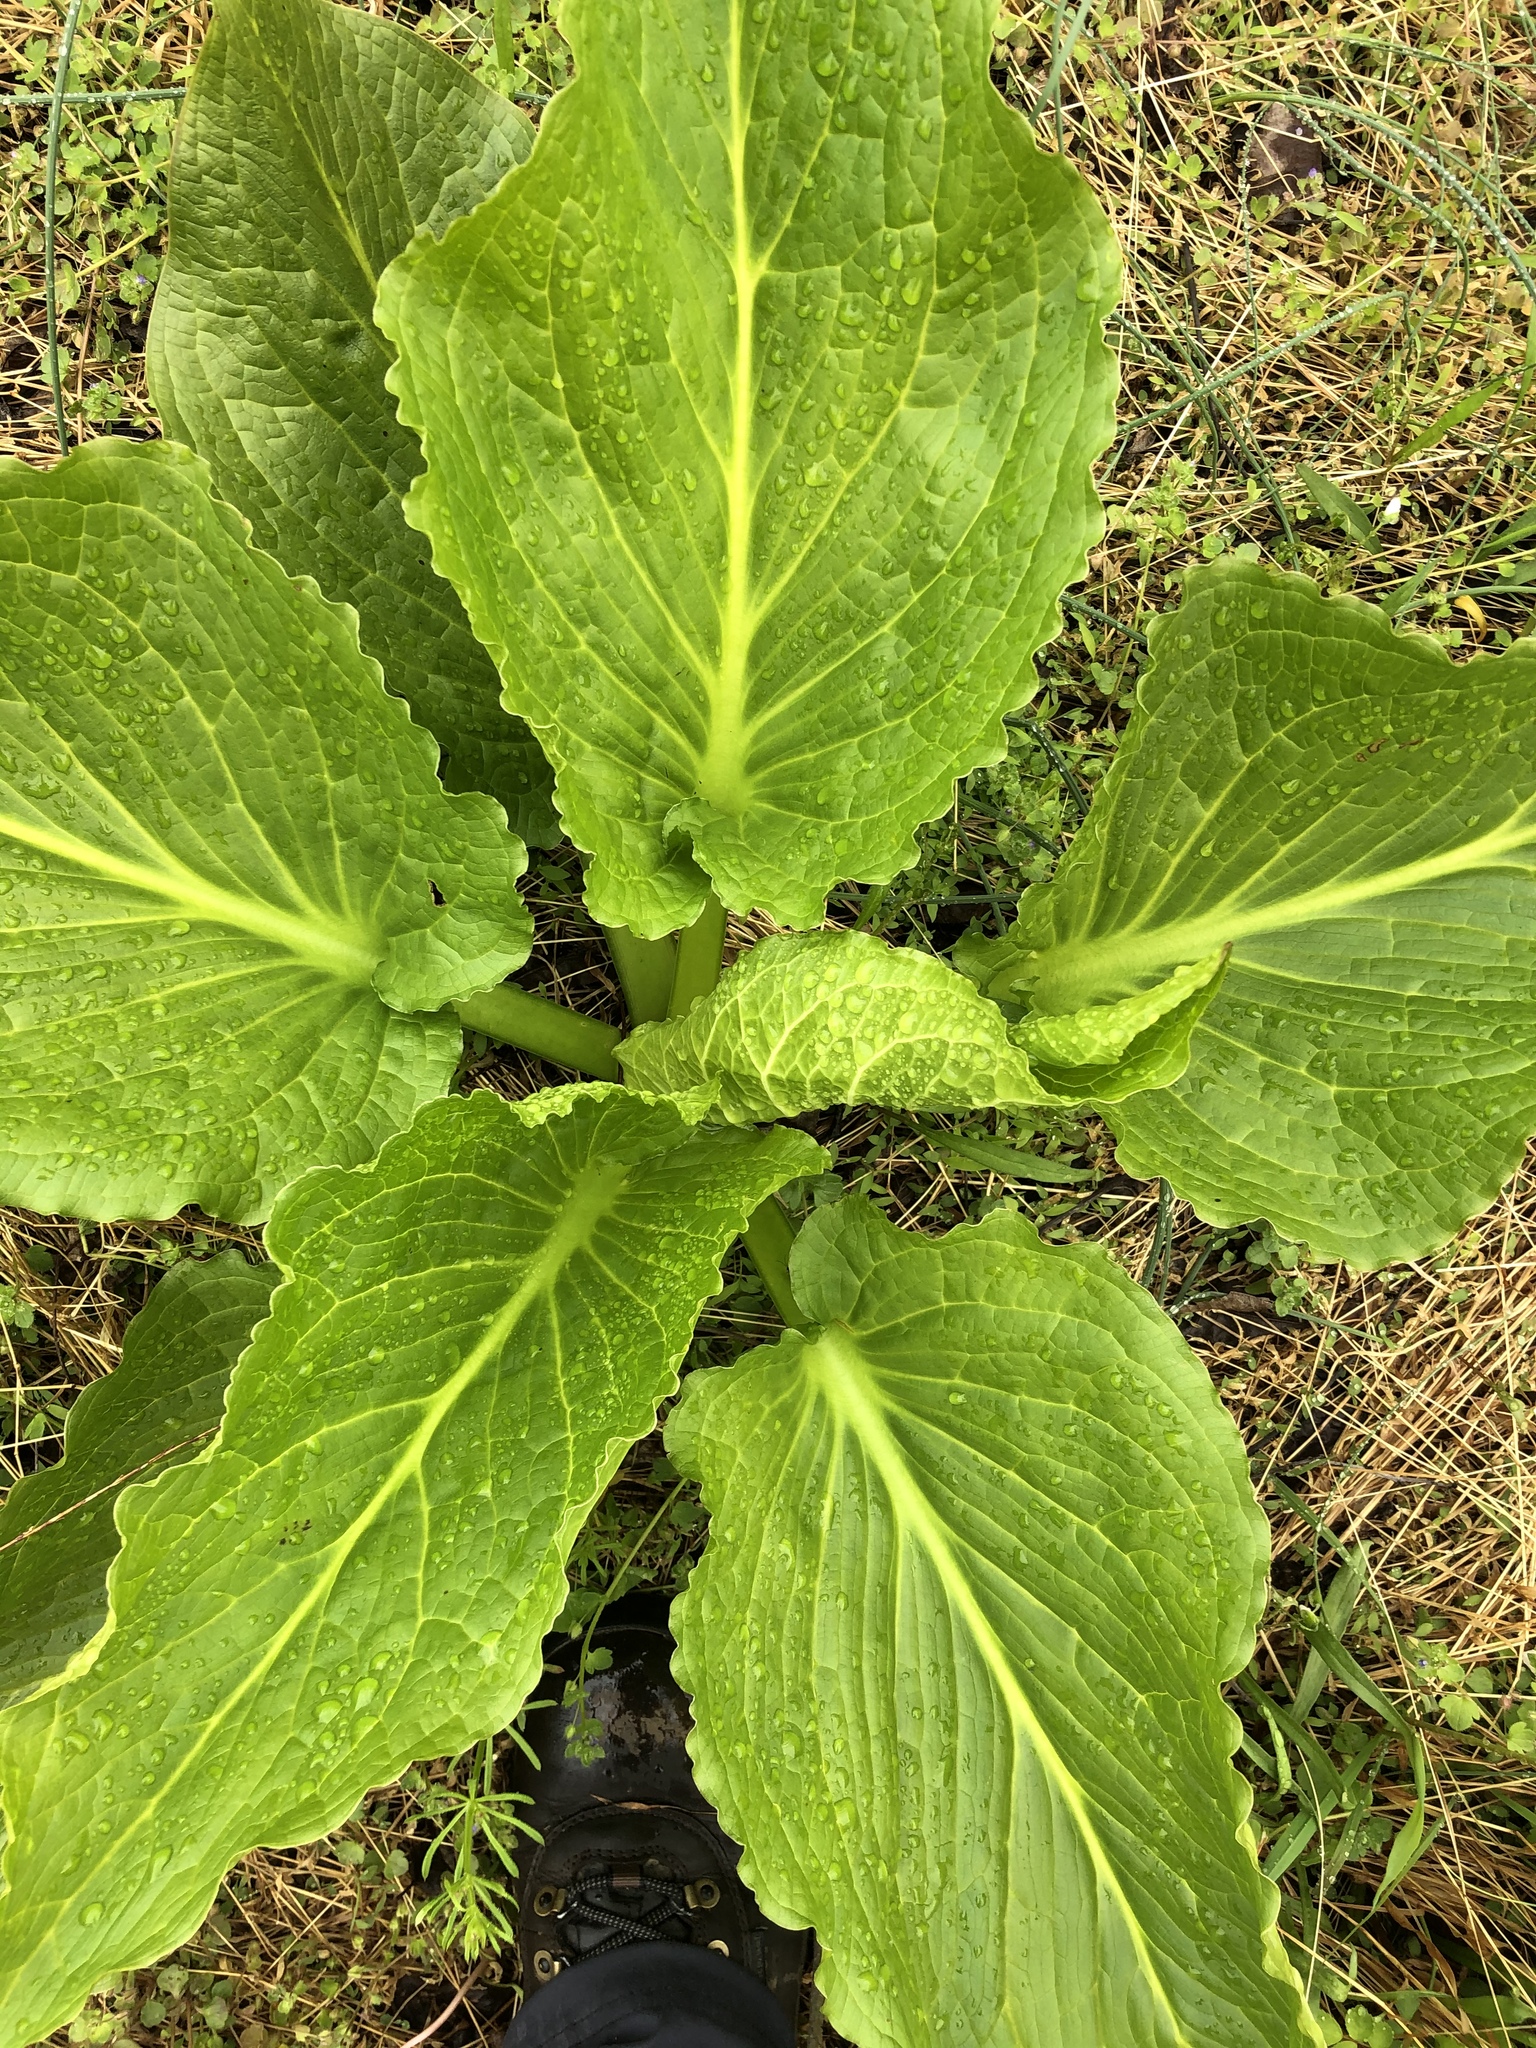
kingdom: Plantae
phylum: Tracheophyta
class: Liliopsida
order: Alismatales
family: Araceae
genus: Symplocarpus
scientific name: Symplocarpus foetidus
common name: Eastern skunk cabbage
